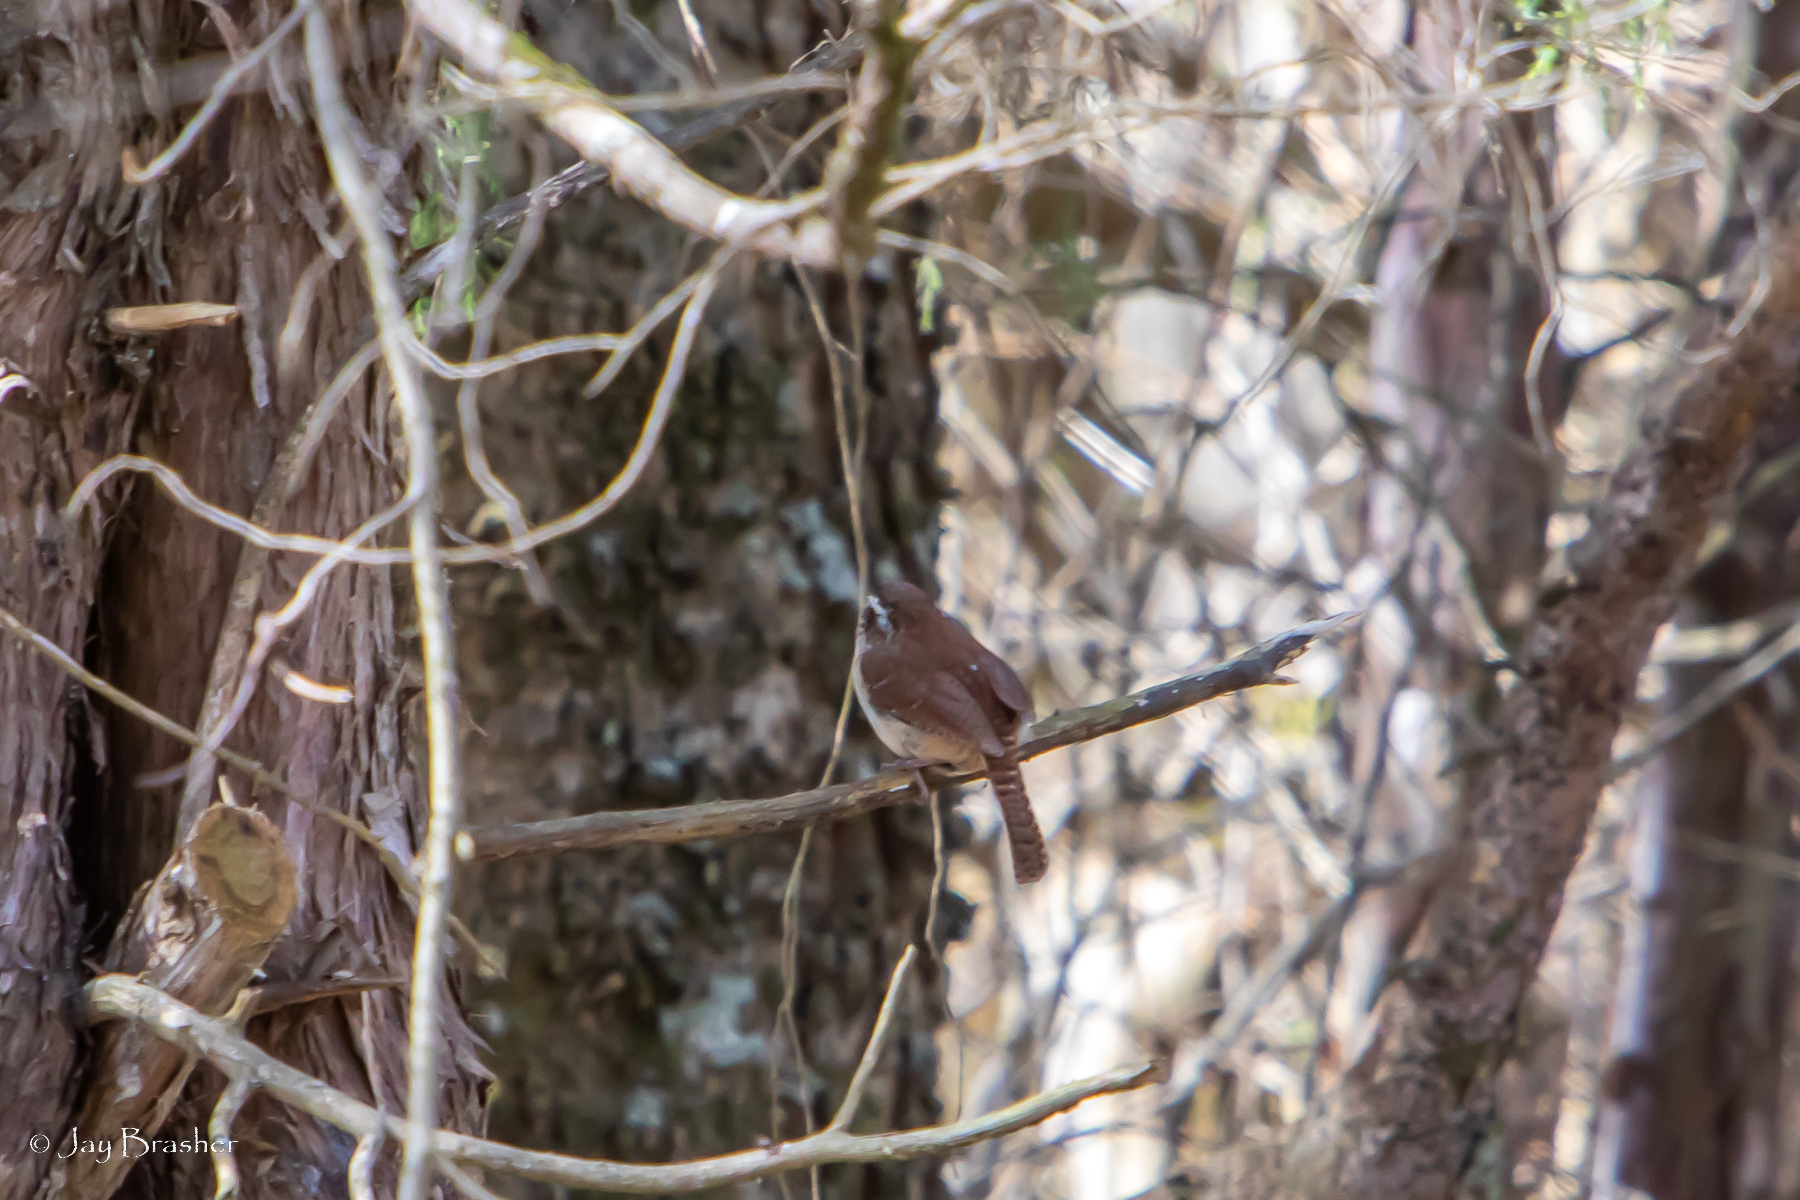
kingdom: Animalia
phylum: Chordata
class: Aves
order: Passeriformes
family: Troglodytidae
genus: Thryothorus
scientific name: Thryothorus ludovicianus
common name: Carolina wren
